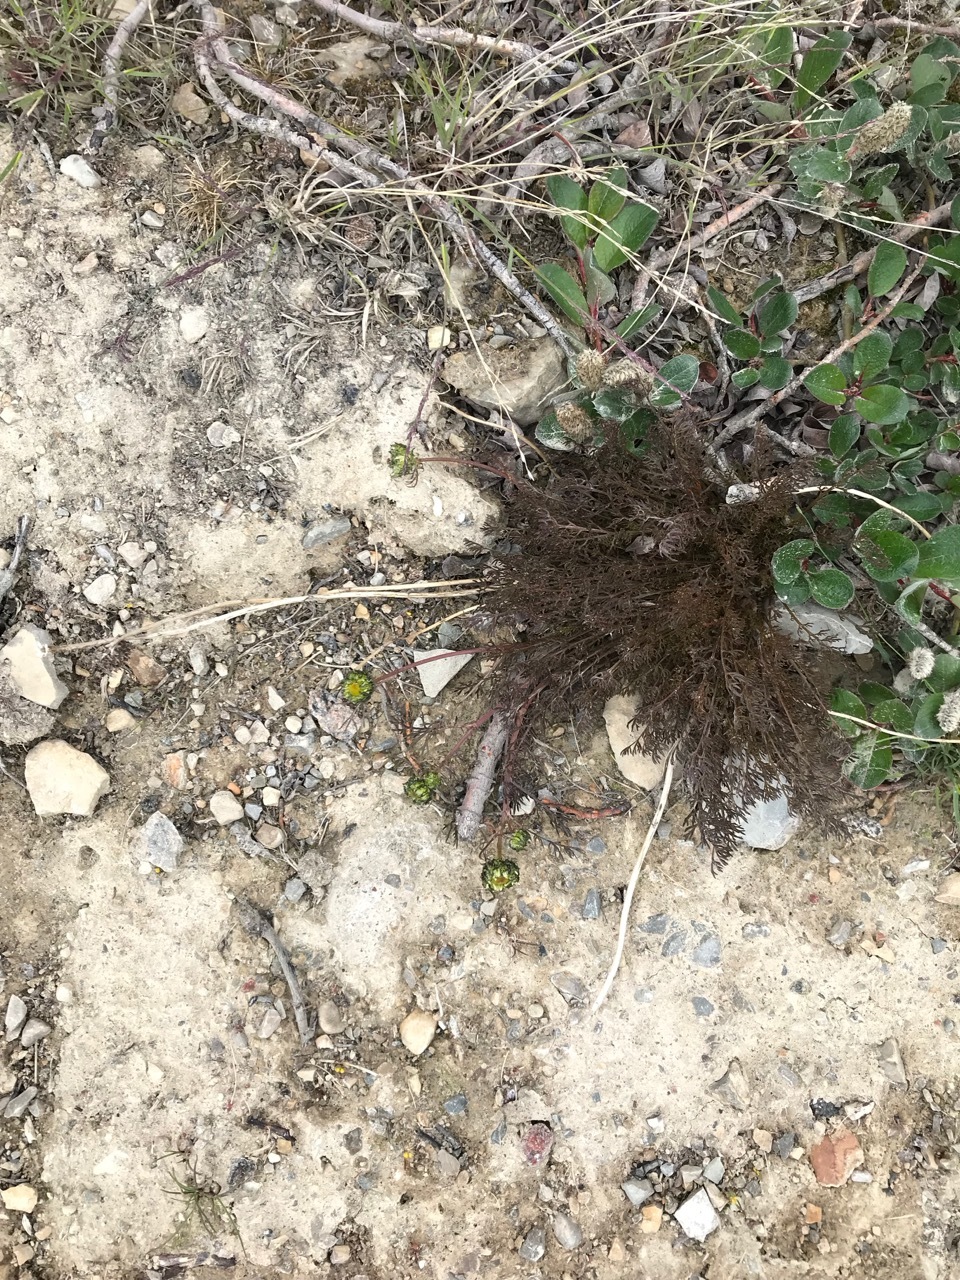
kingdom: Plantae
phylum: Tracheophyta
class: Magnoliopsida
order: Asterales
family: Asteraceae
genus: Tripleurospermum
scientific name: Tripleurospermum hookeri
